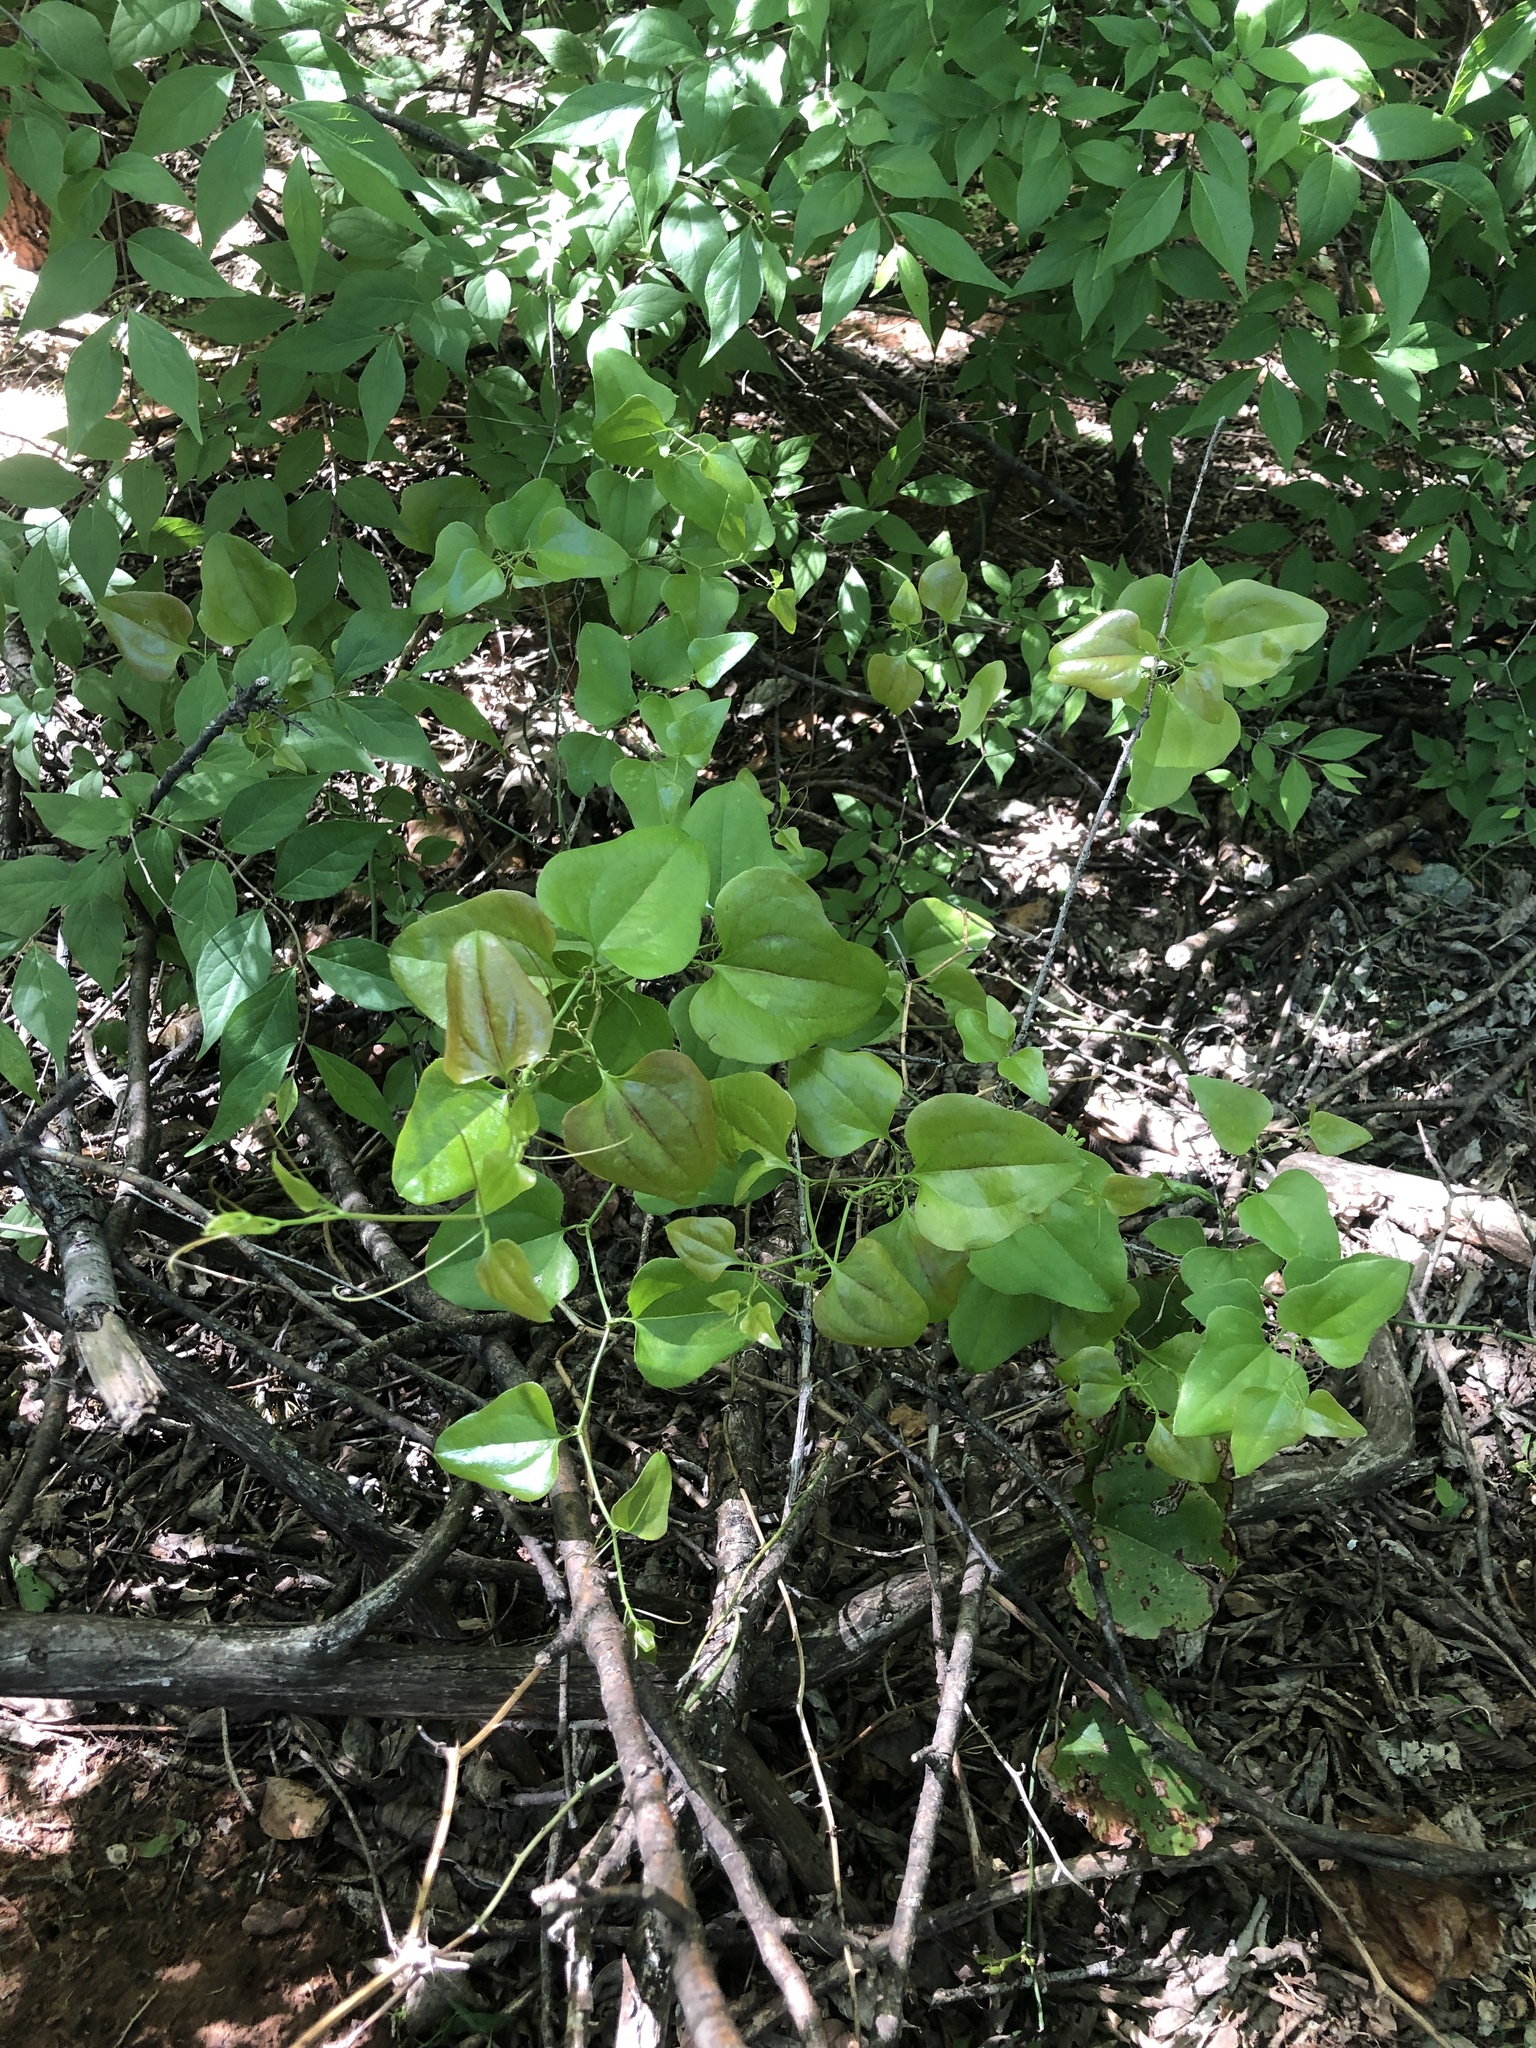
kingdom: Plantae
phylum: Tracheophyta
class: Liliopsida
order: Liliales
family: Smilacaceae
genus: Smilax
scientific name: Smilax bona-nox
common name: Catbrier
